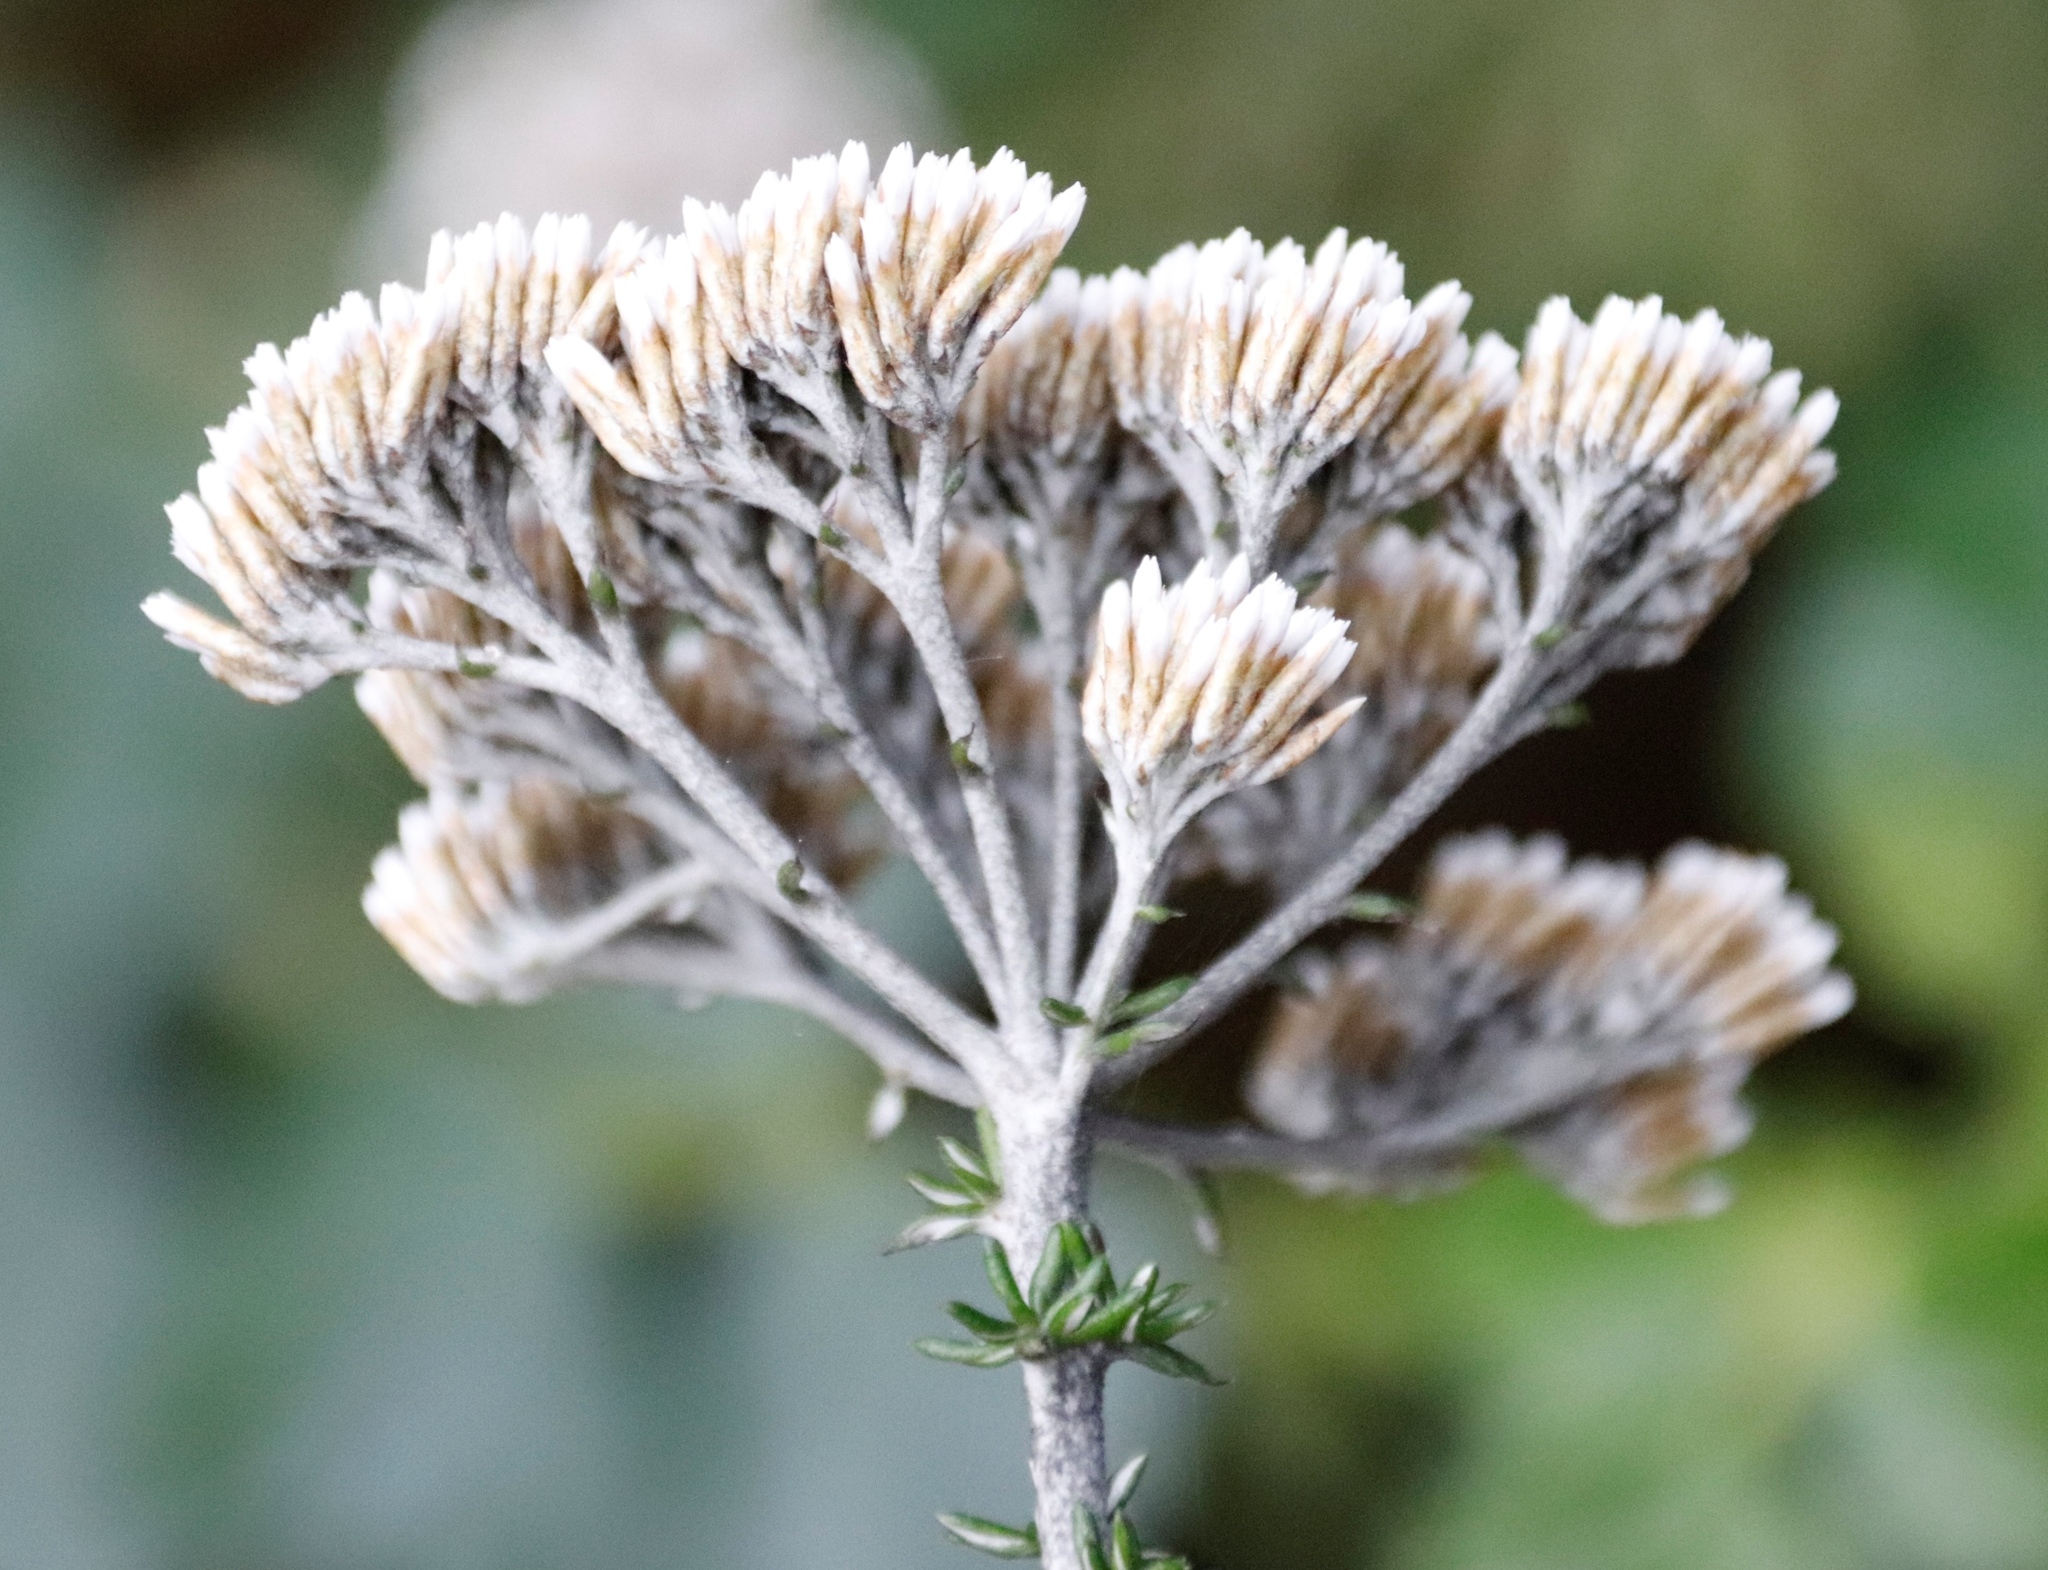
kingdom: Plantae
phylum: Tracheophyta
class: Magnoliopsida
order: Asterales
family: Asteraceae
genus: Metalasia
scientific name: Metalasia densa
